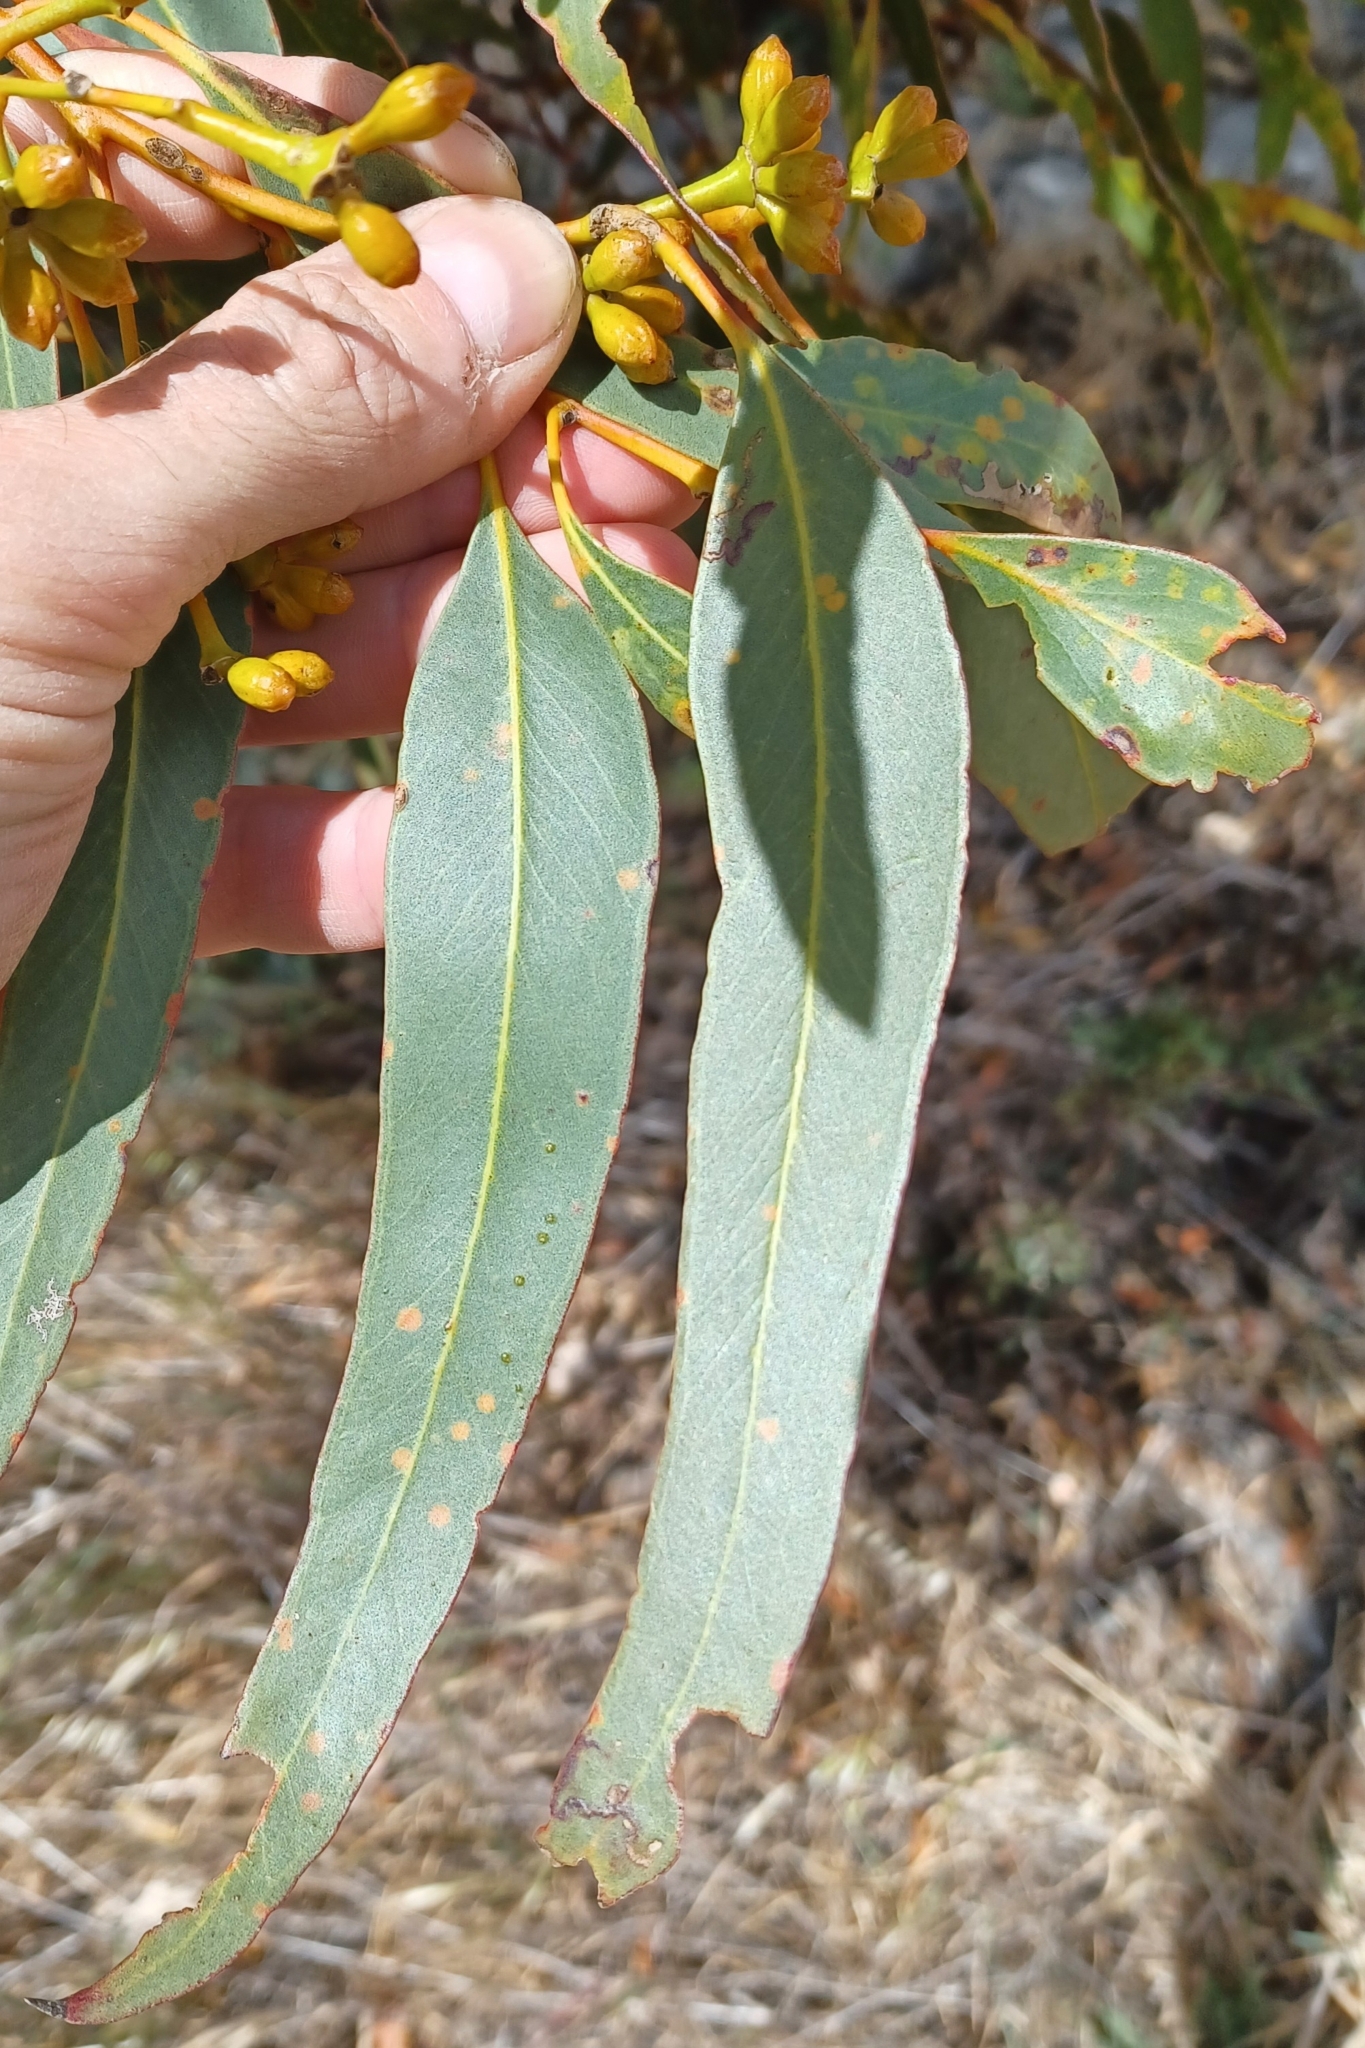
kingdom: Plantae
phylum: Tracheophyta
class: Magnoliopsida
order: Myrtales
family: Myrtaceae
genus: Eucalyptus
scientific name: Eucalyptus dumosa
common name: Dumosa mallee
